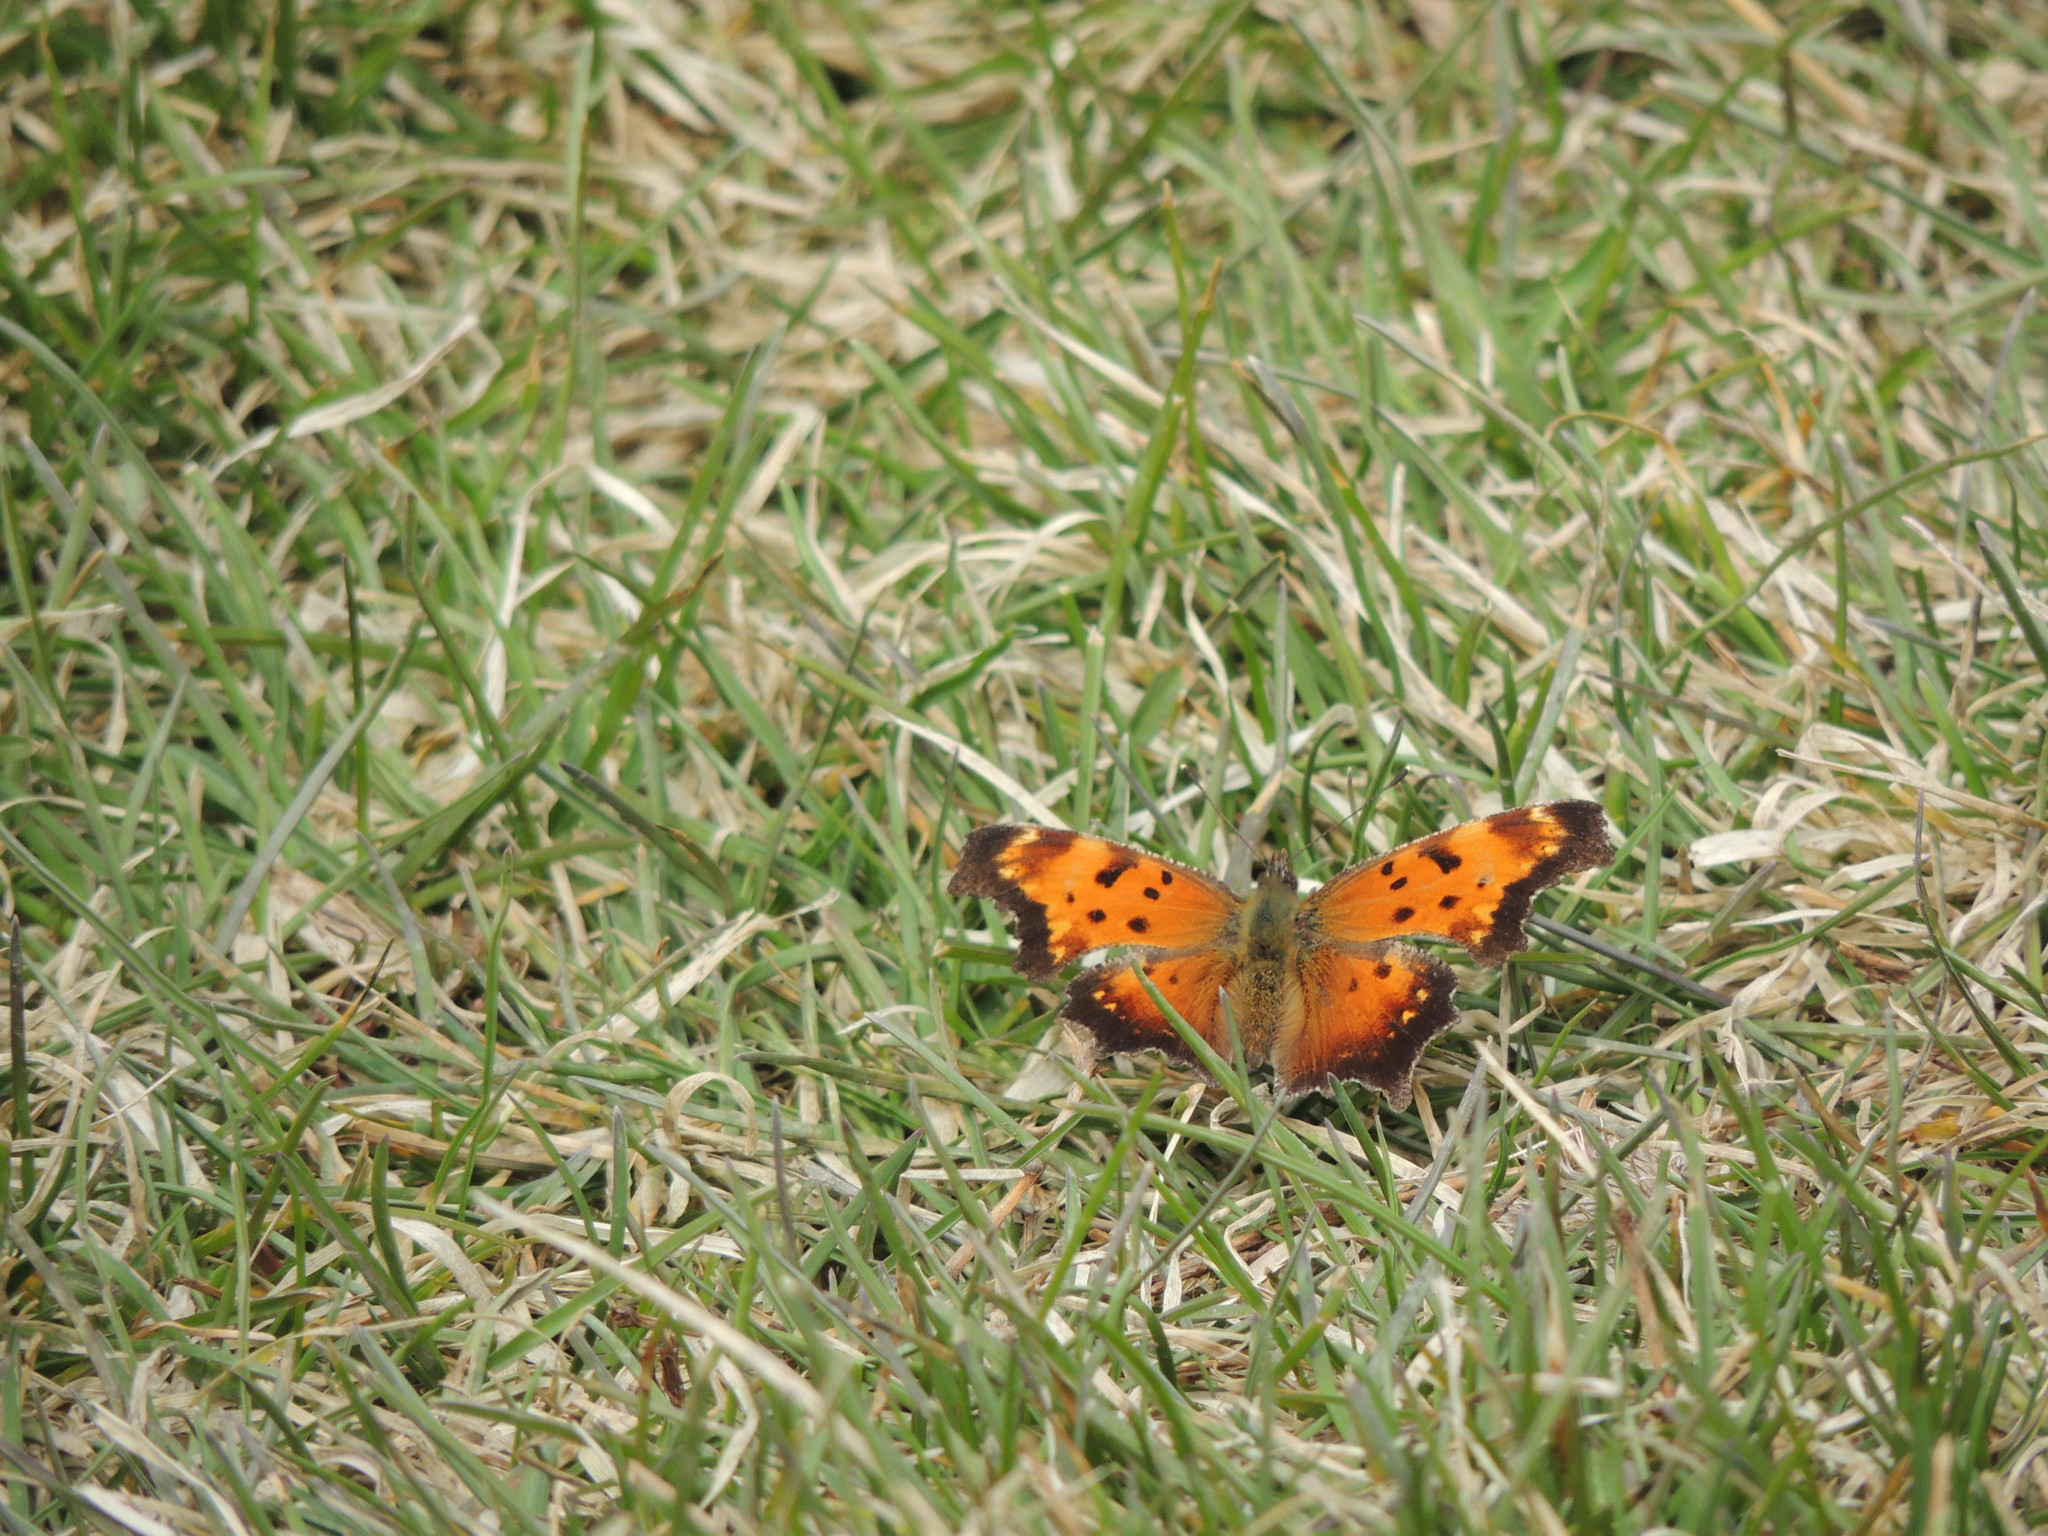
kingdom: Animalia
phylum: Arthropoda
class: Insecta
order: Lepidoptera
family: Nymphalidae
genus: Polygonia
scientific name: Polygonia progne
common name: Gray comma
